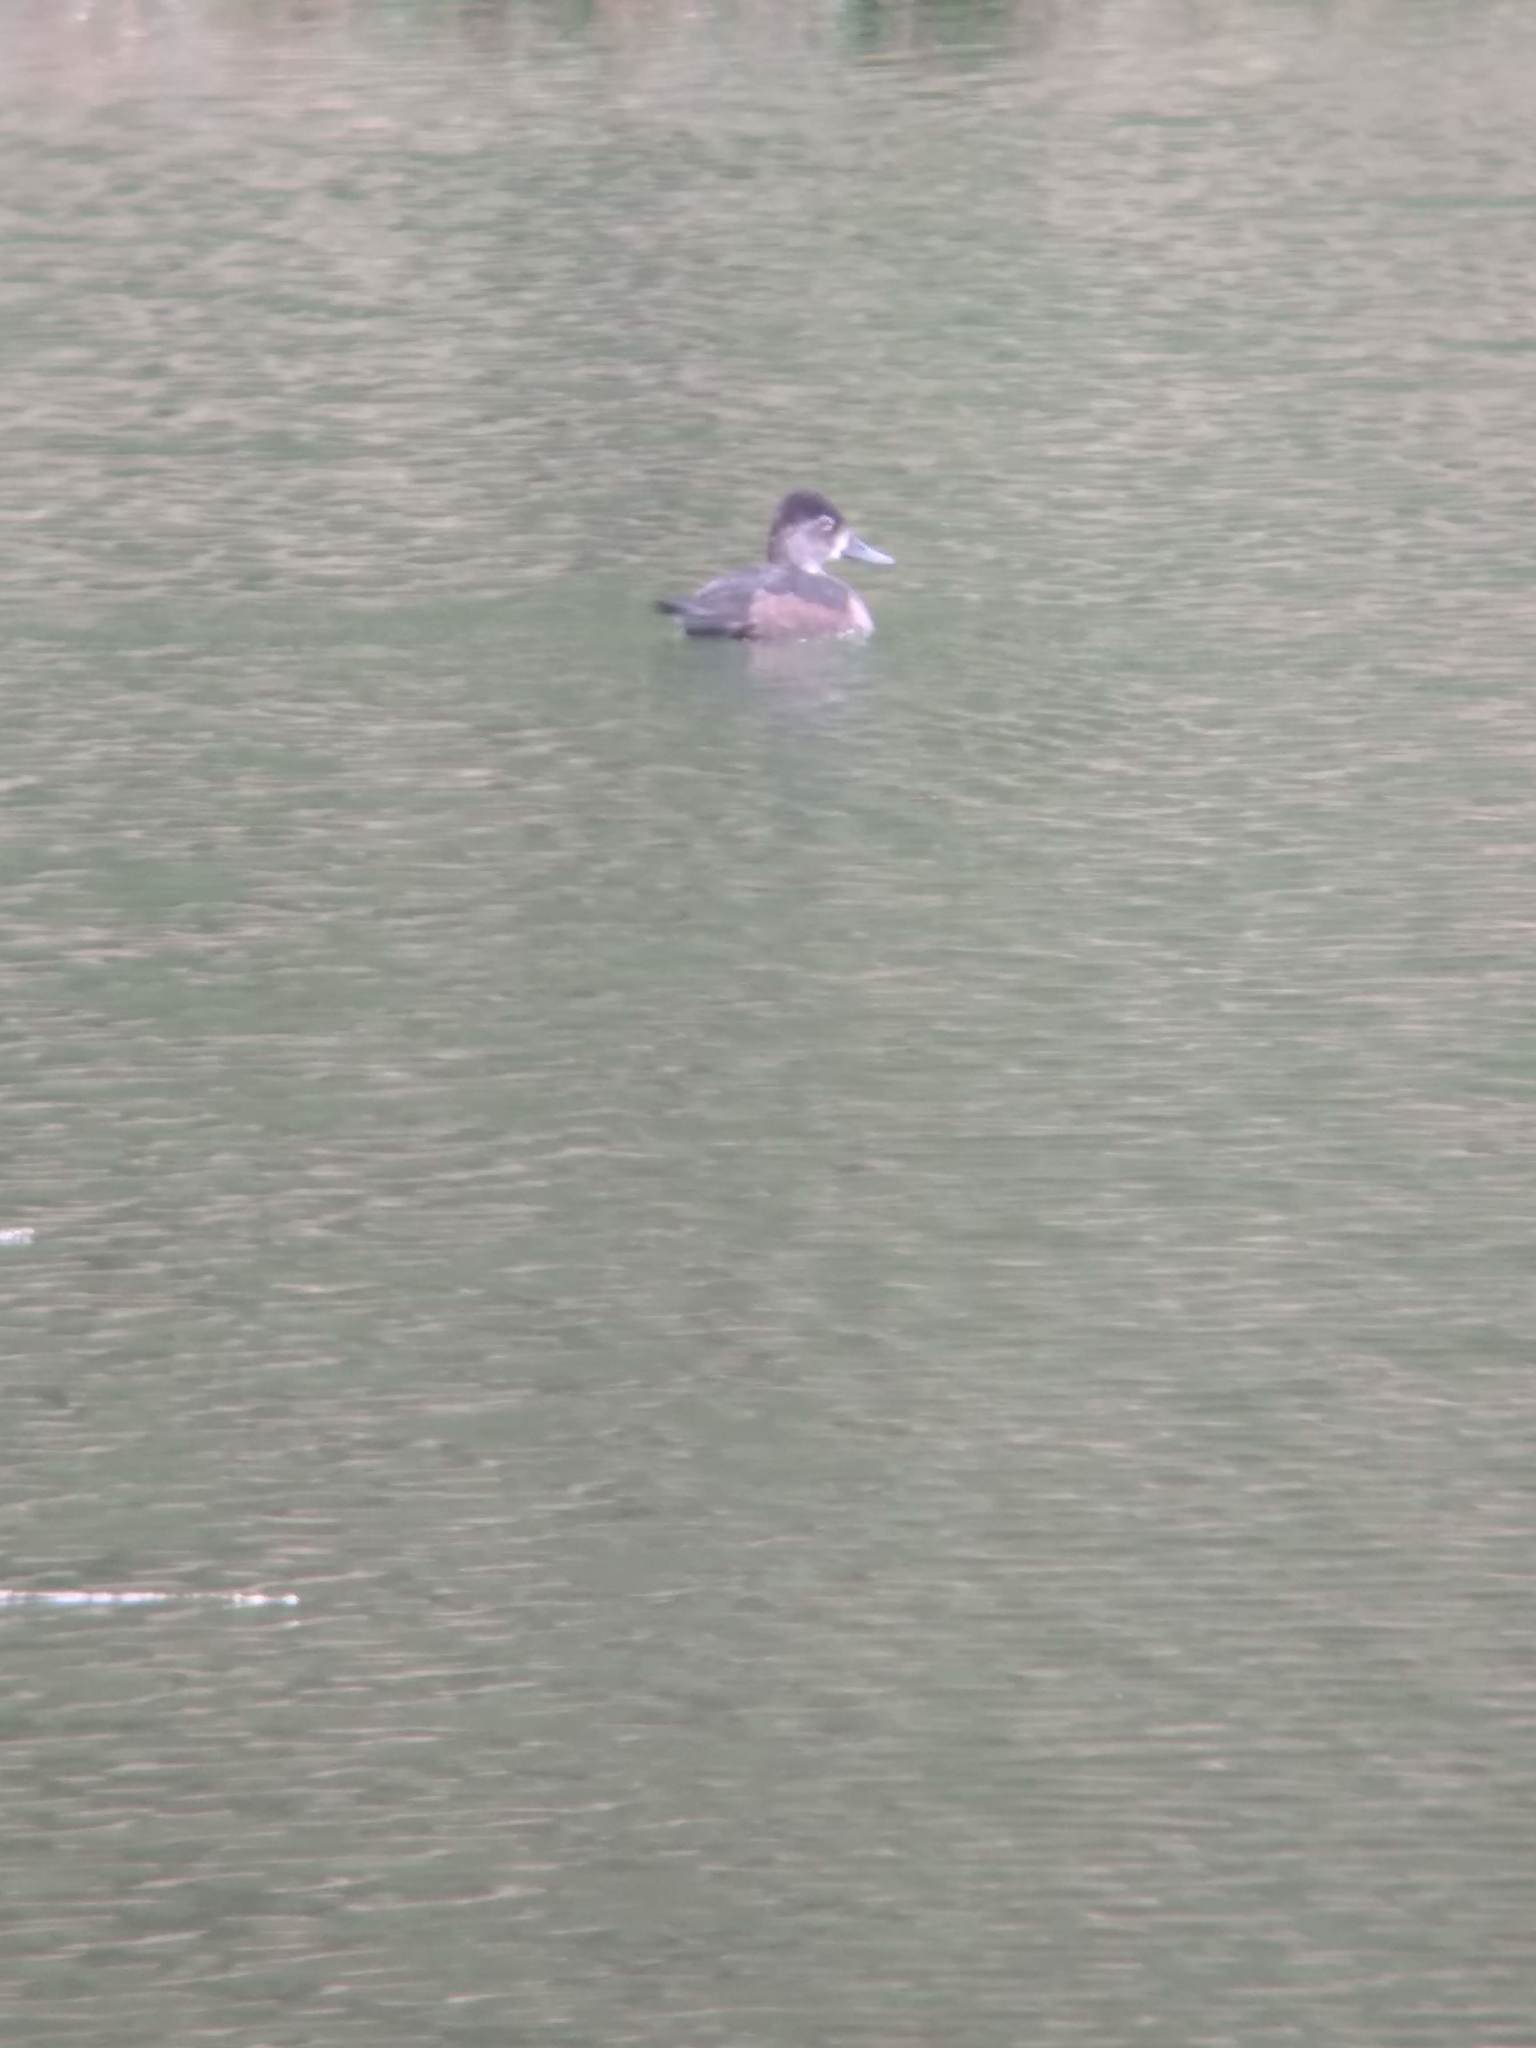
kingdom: Animalia
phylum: Chordata
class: Aves
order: Anseriformes
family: Anatidae
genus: Aythya
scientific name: Aythya collaris
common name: Ring-necked duck
